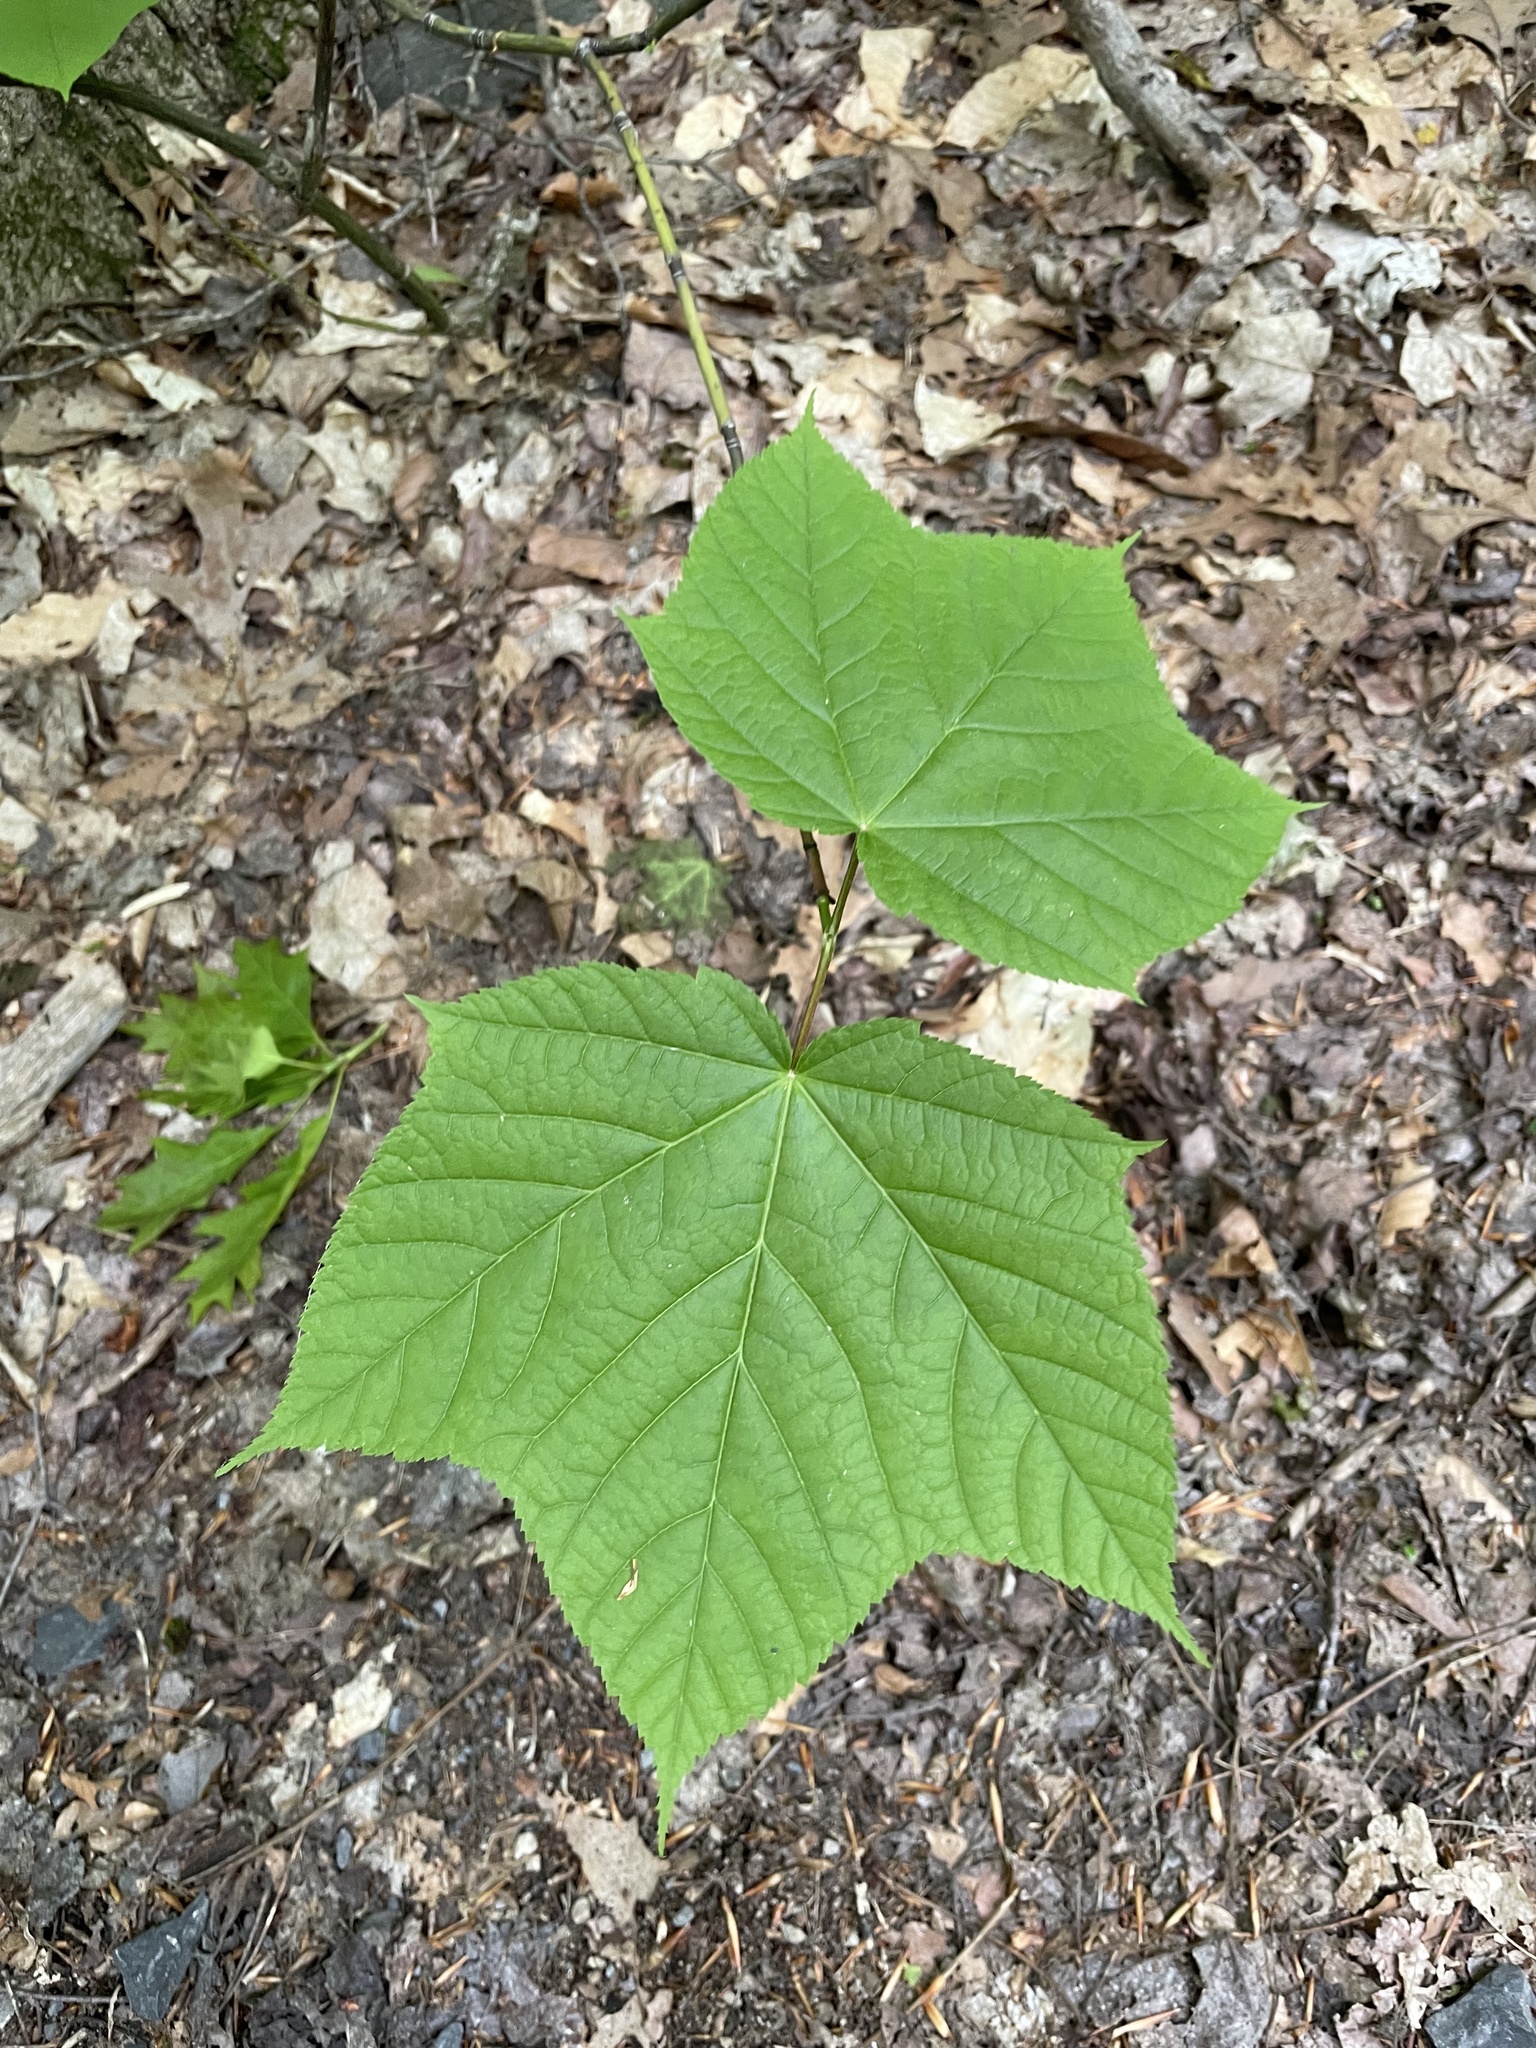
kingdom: Plantae
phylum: Tracheophyta
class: Magnoliopsida
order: Sapindales
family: Sapindaceae
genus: Acer
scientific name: Acer pensylvanicum
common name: Moosewood
